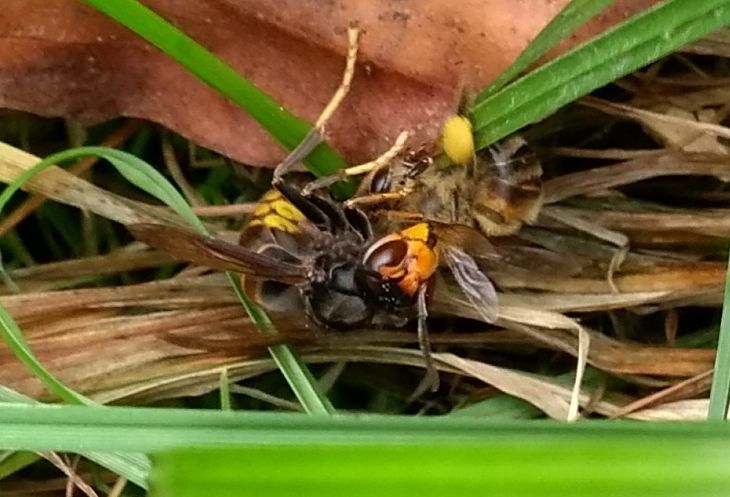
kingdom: Animalia
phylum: Arthropoda
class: Insecta
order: Hymenoptera
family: Vespidae
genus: Vespa
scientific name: Vespa velutina
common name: Asian hornet
